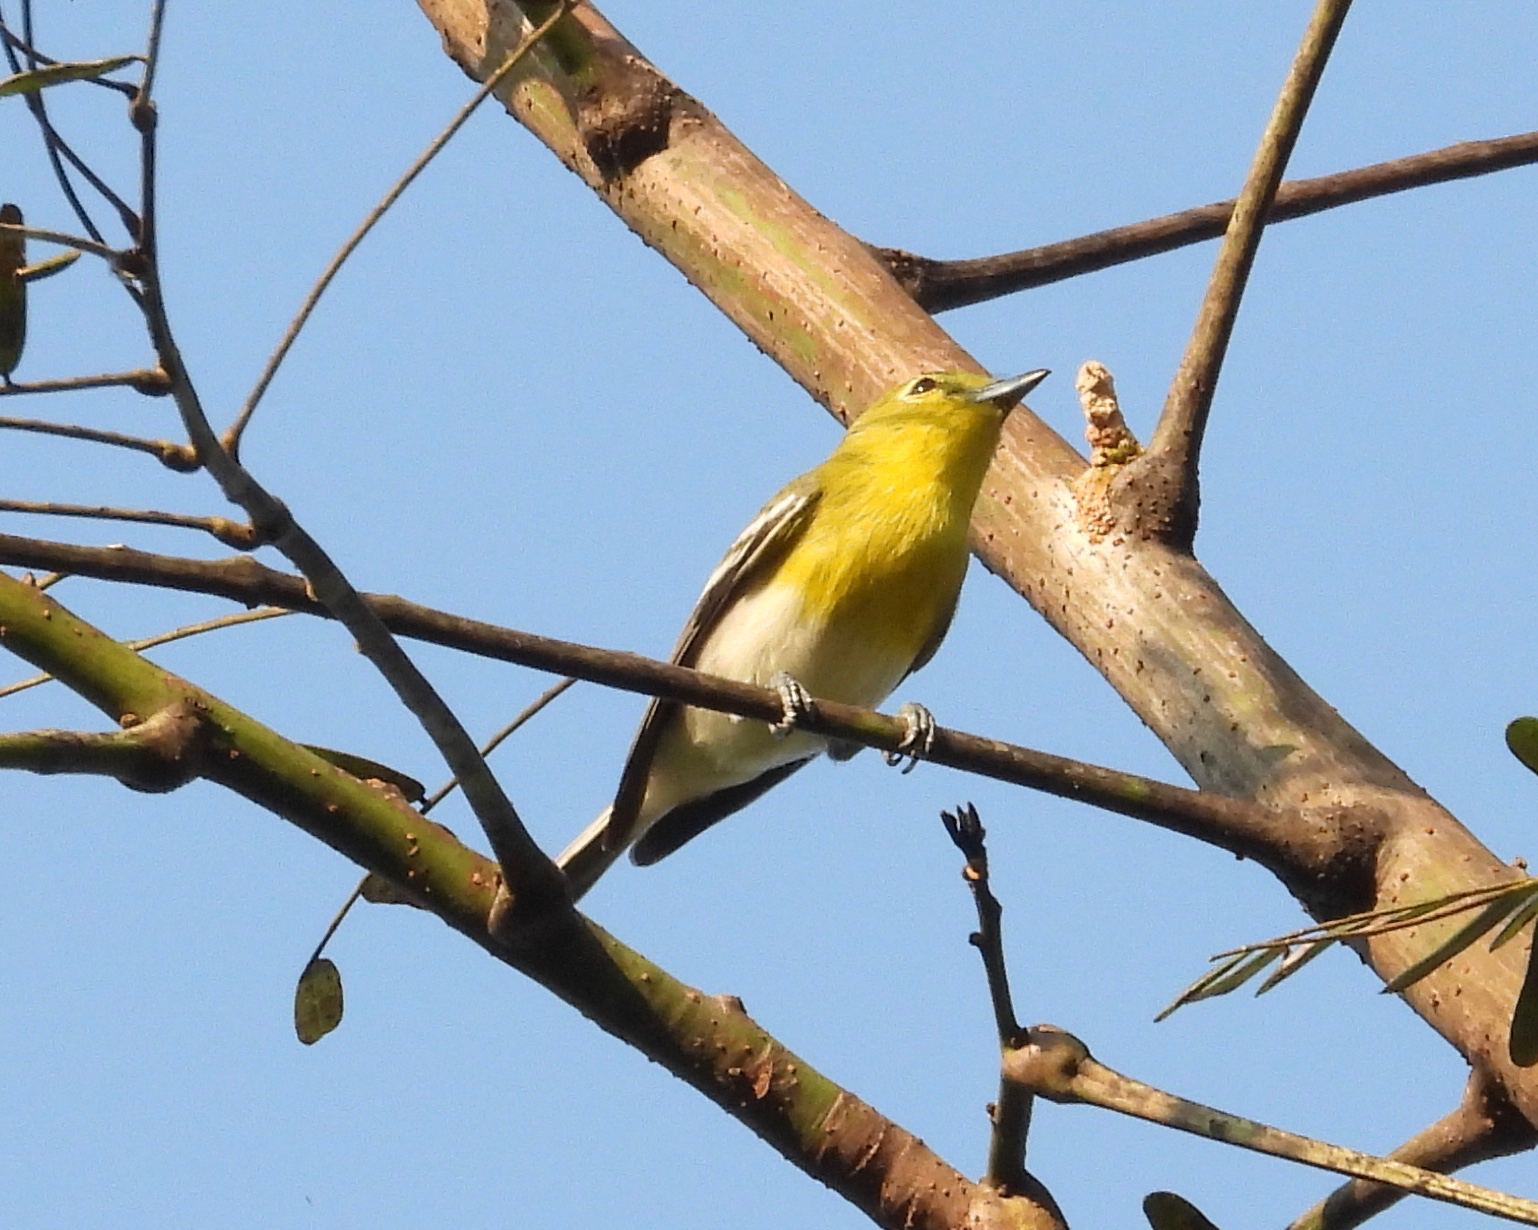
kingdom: Animalia
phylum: Chordata
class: Aves
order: Passeriformes
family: Vireonidae
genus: Vireo
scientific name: Vireo flavifrons
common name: Yellow-throated vireo
